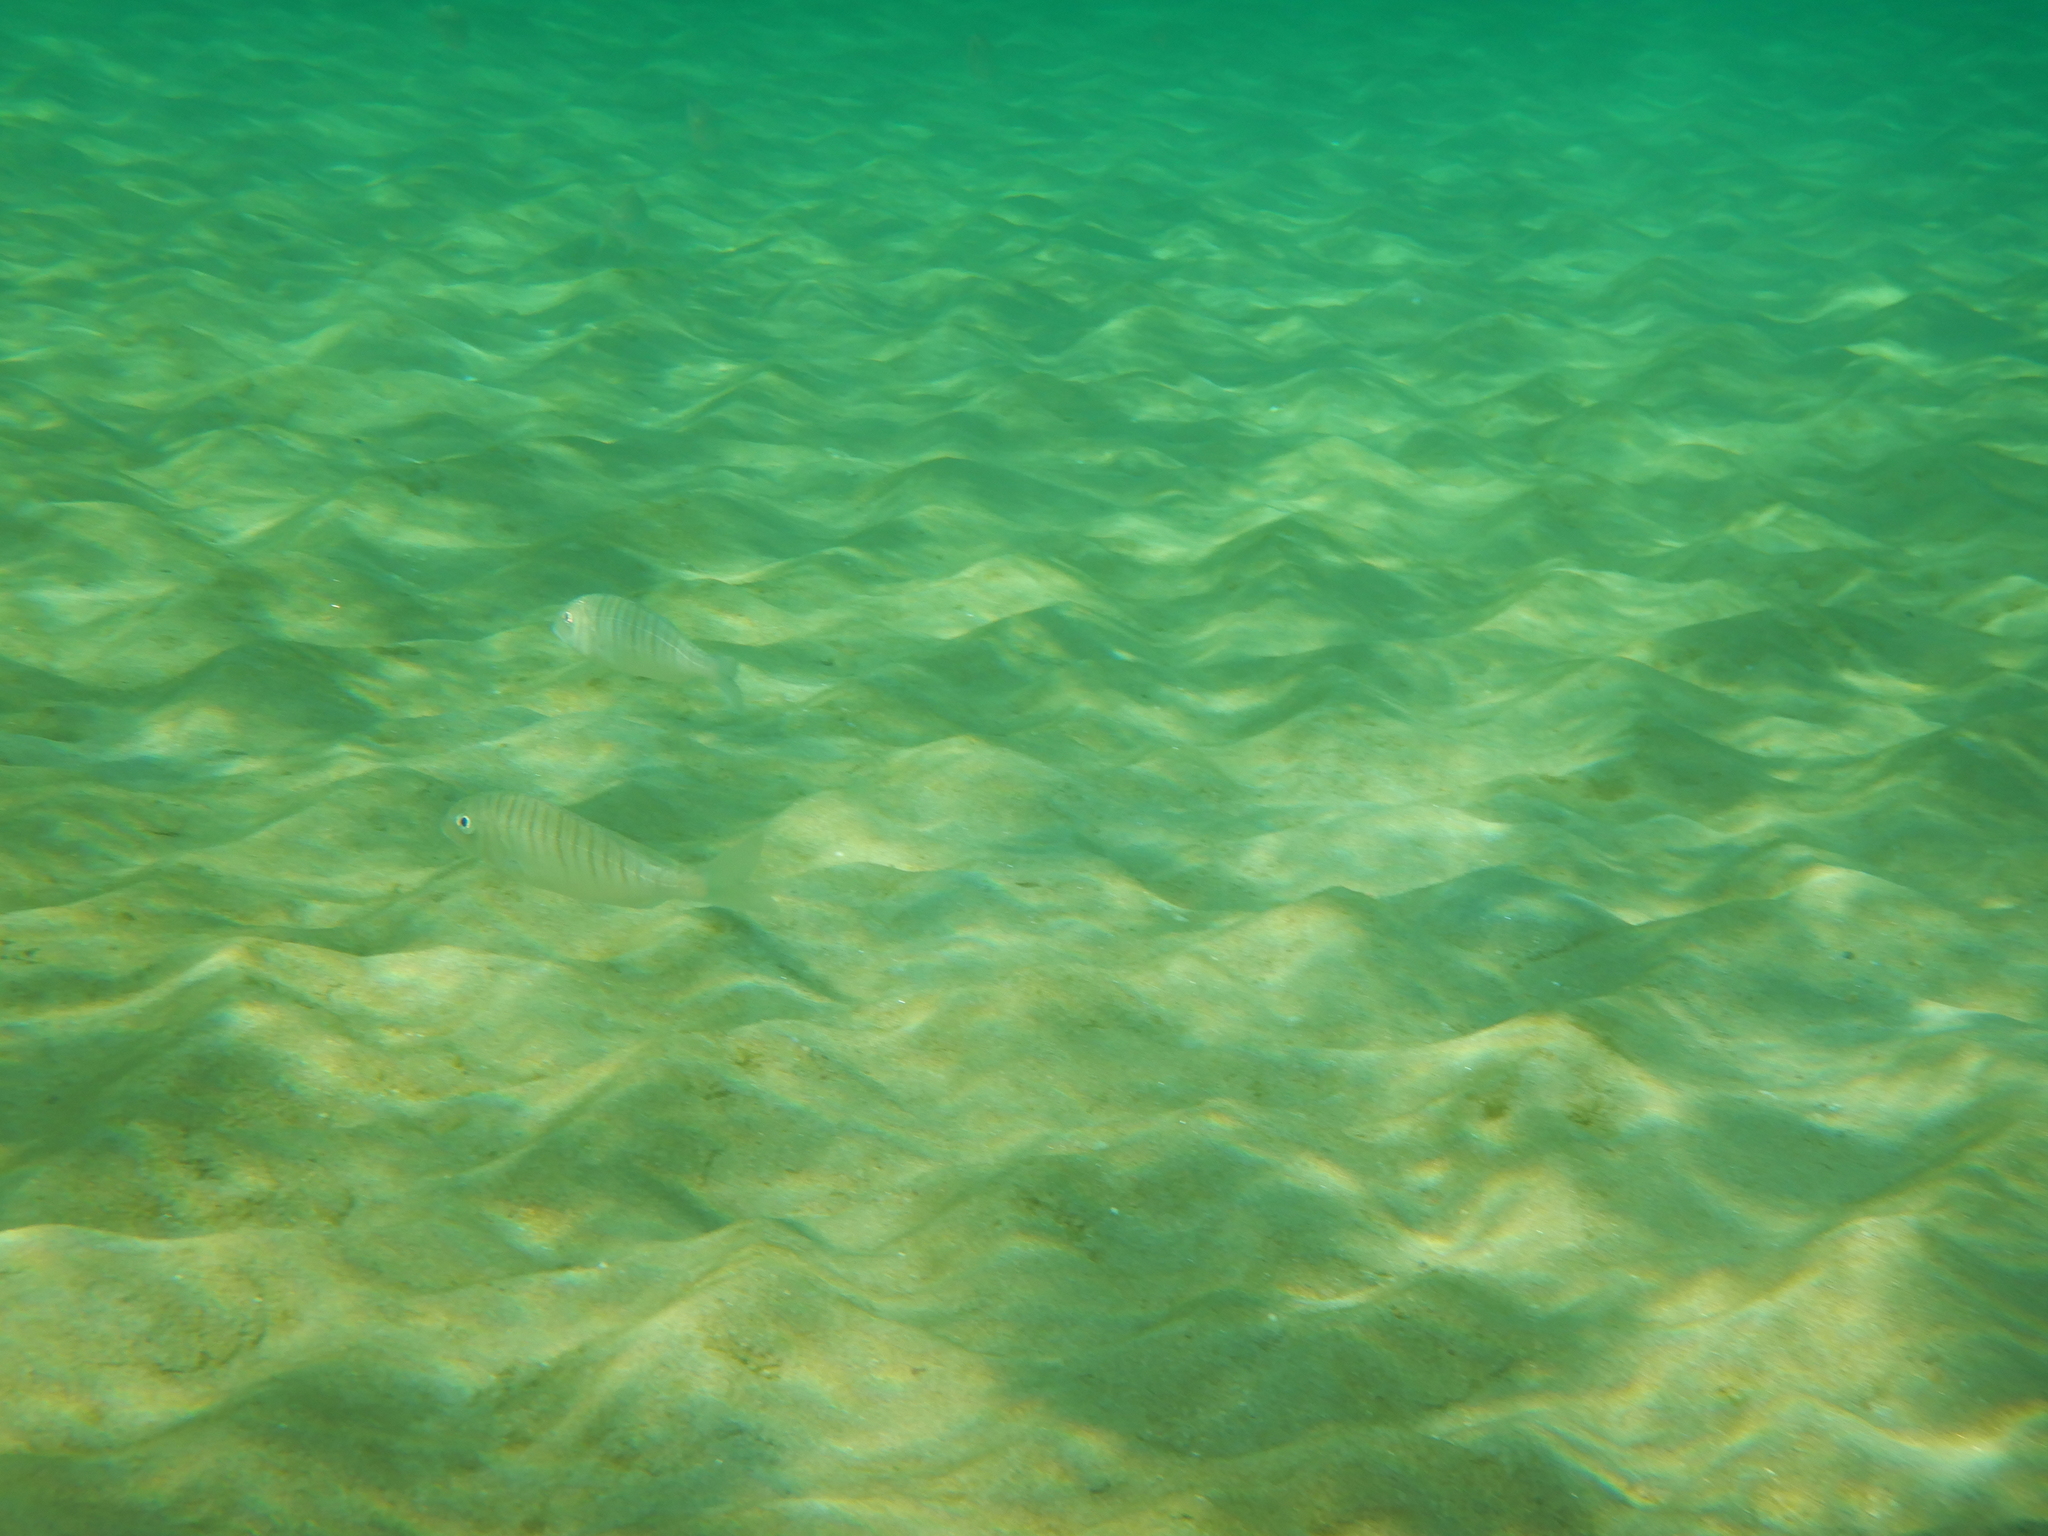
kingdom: Animalia
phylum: Chordata
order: Perciformes
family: Sparidae
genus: Lithognathus
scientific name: Lithognathus mormyrus
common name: Sand steenbras
